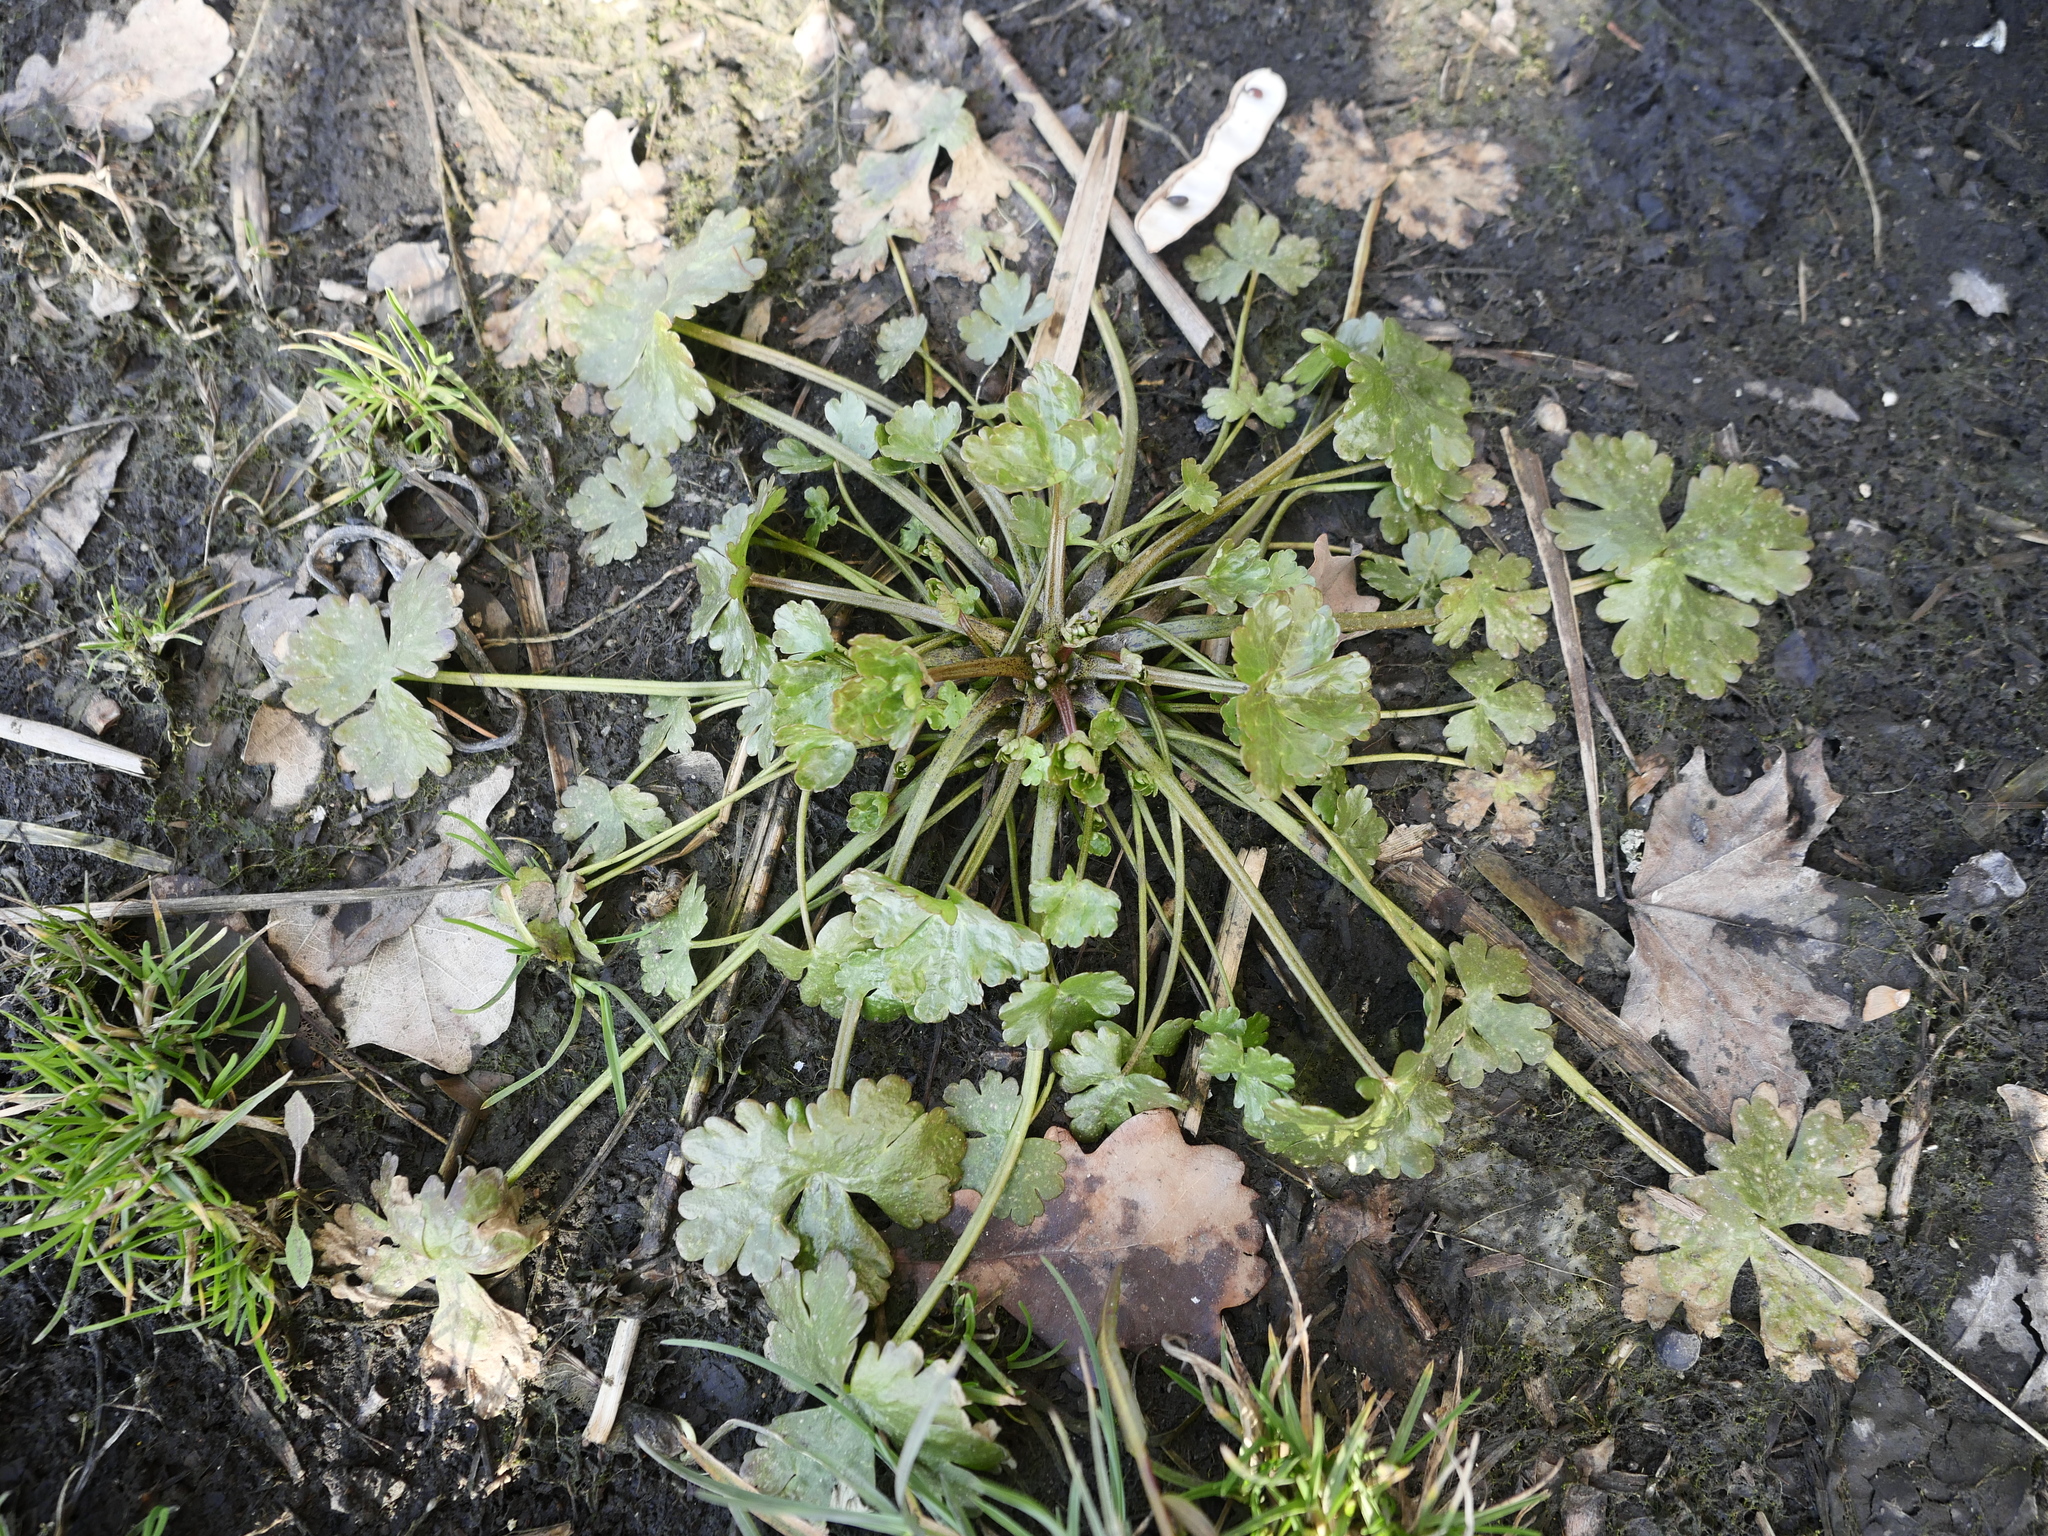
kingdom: Plantae
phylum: Tracheophyta
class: Magnoliopsida
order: Ranunculales
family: Ranunculaceae
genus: Ranunculus
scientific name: Ranunculus sceleratus
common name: Celery-leaved buttercup
